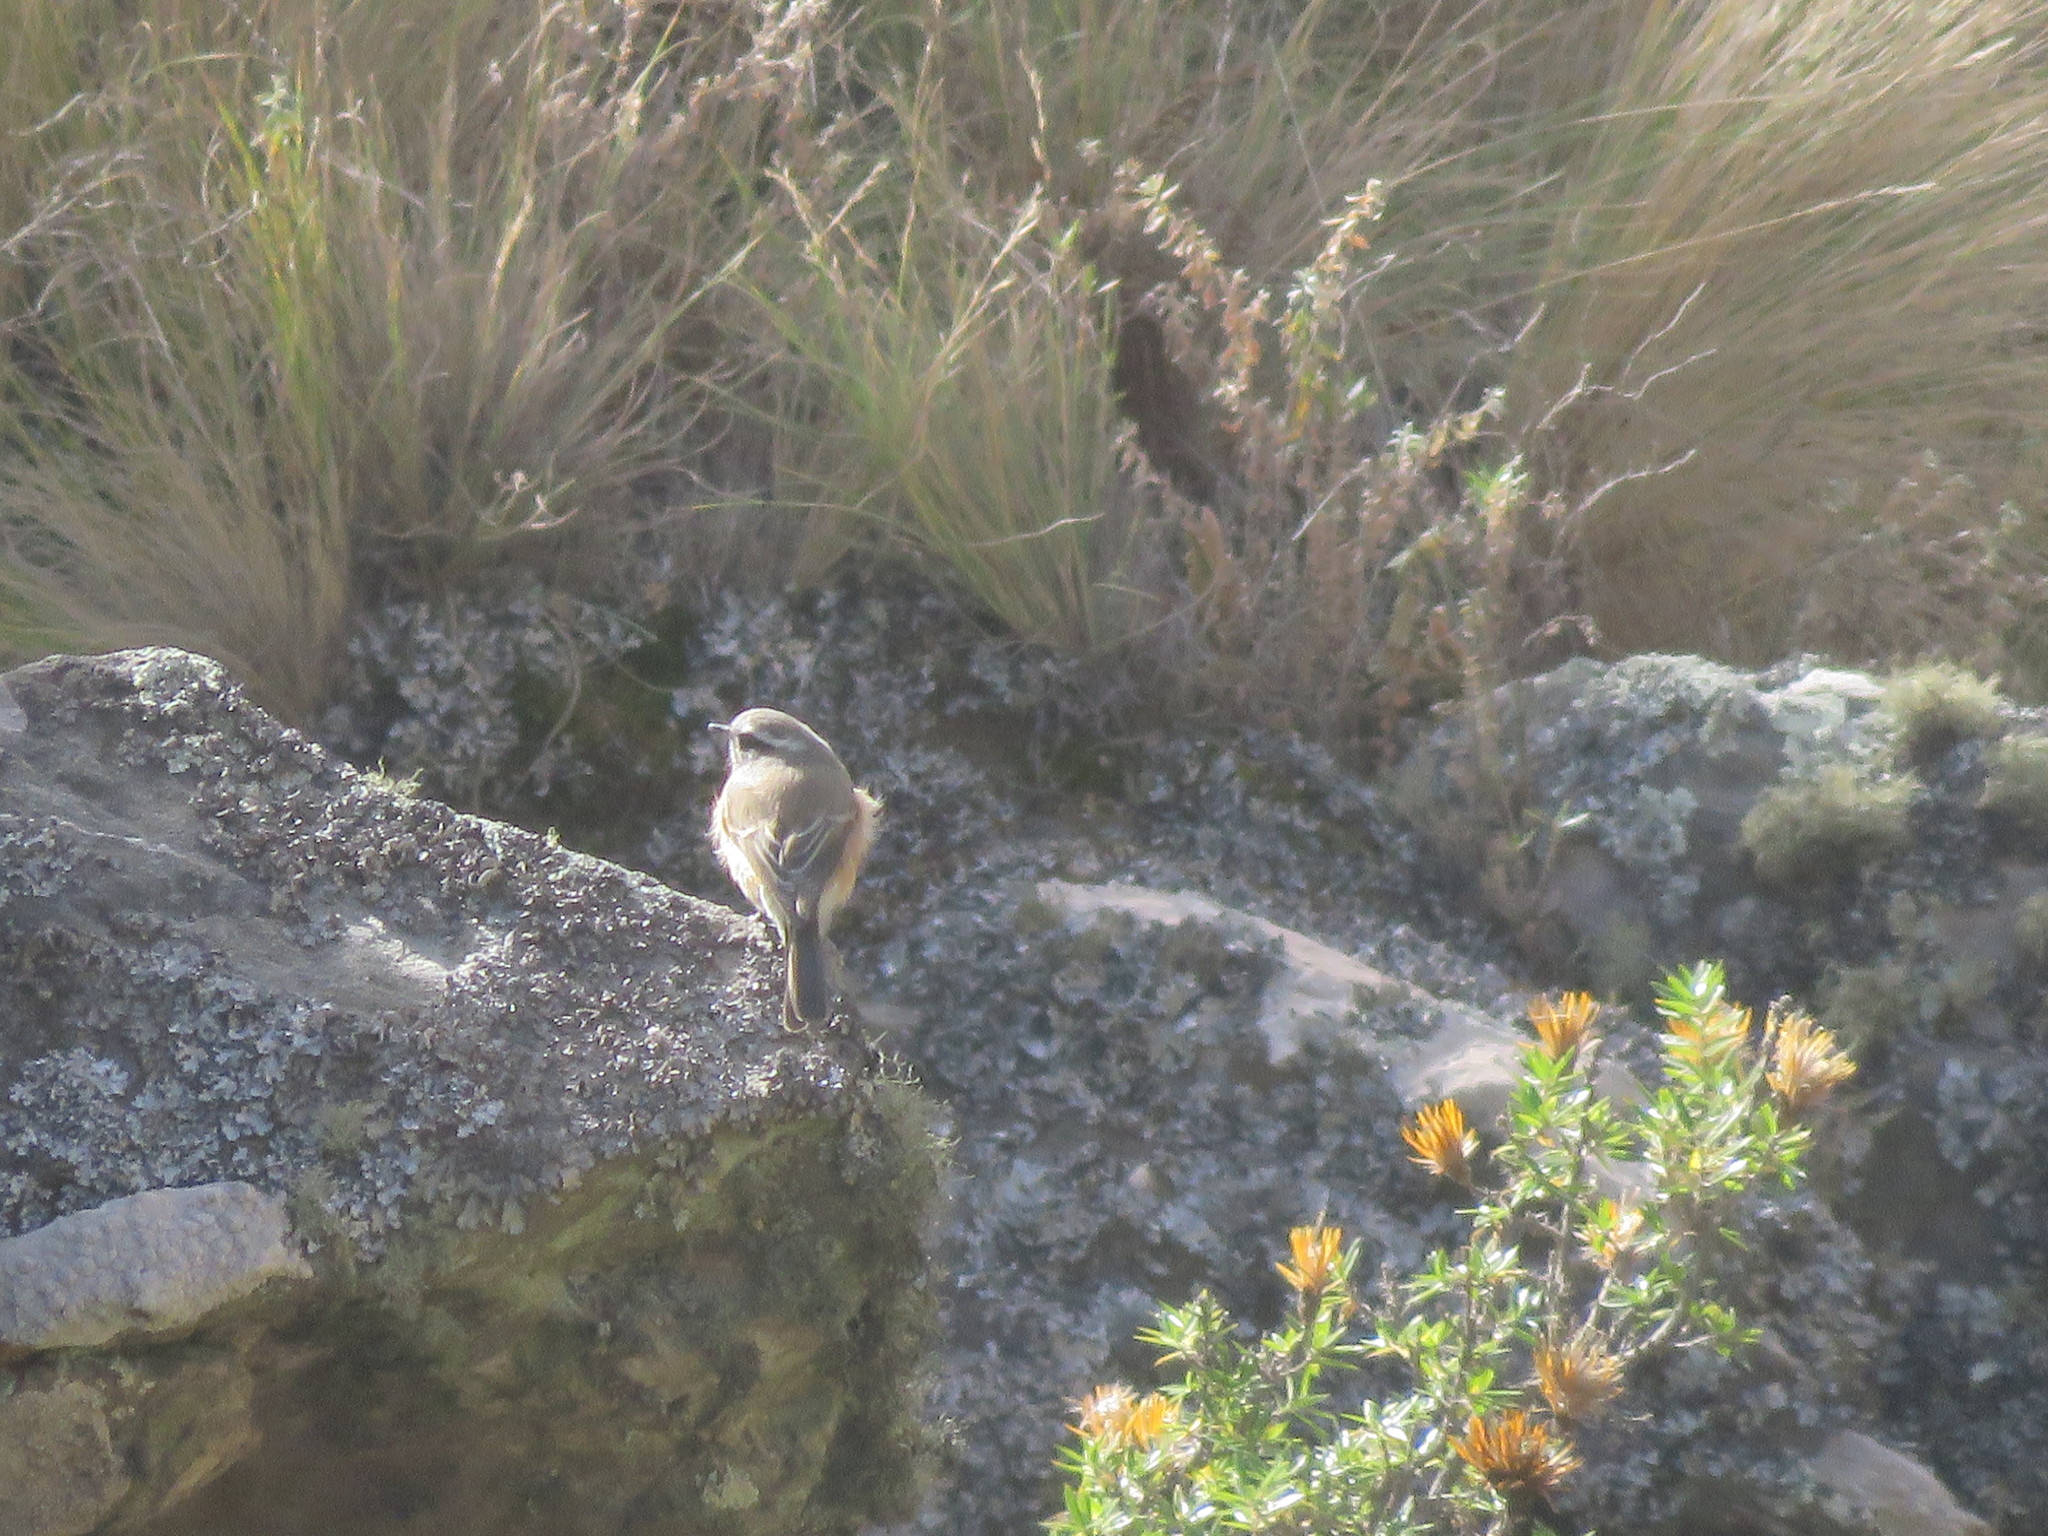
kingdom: Animalia
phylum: Chordata
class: Aves
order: Passeriformes
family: Tyrannidae
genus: Ochthoeca
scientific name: Ochthoeca oenanthoides
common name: D'orbigny's chat-tyrant
